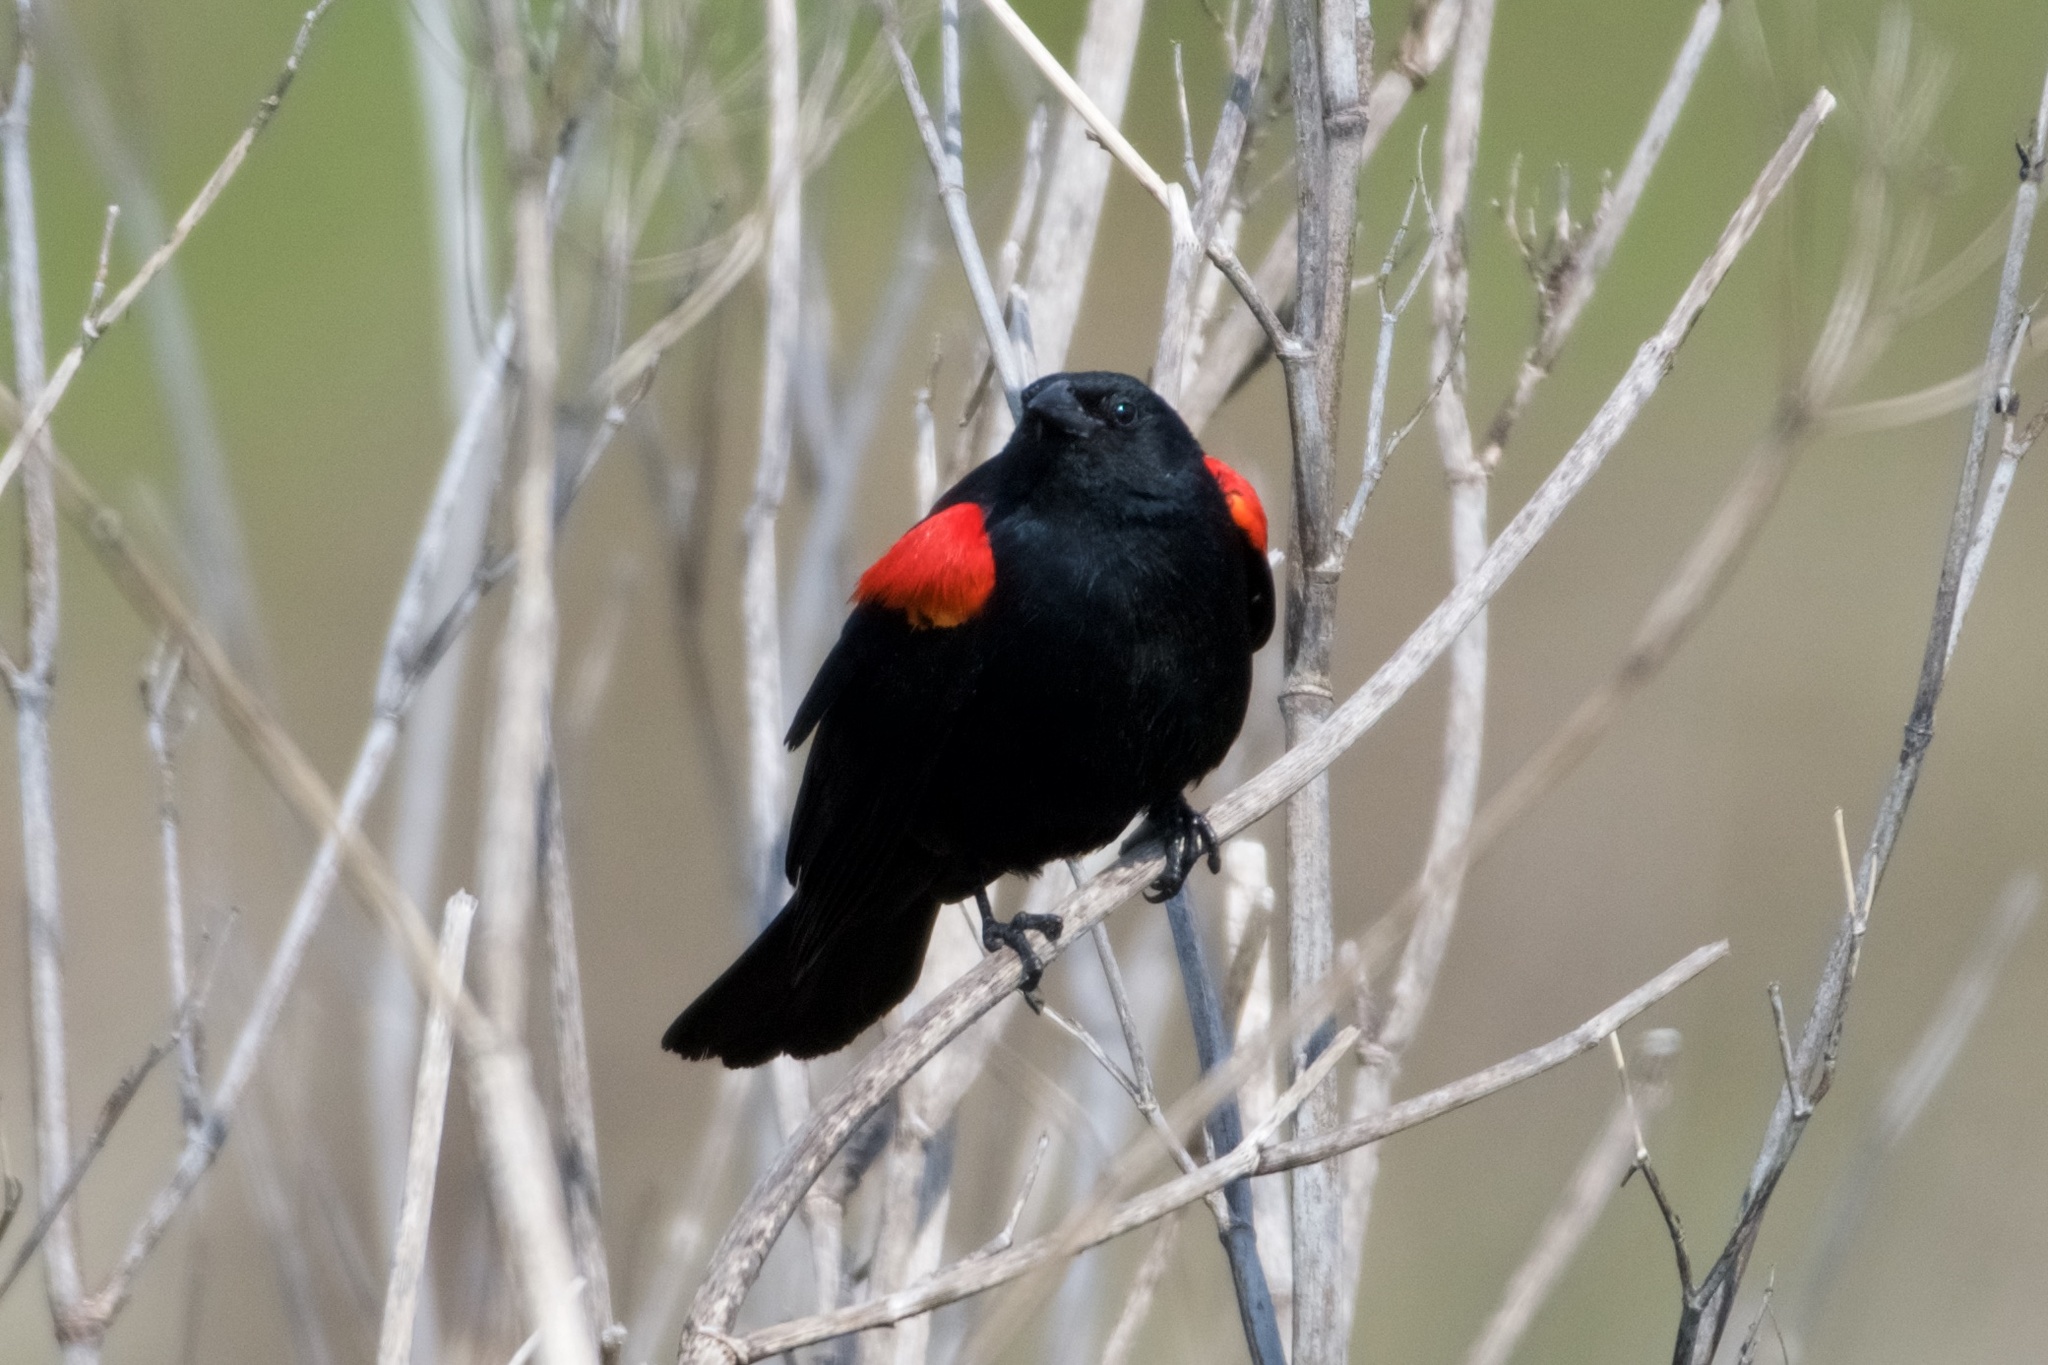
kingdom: Animalia
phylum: Chordata
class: Aves
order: Passeriformes
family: Icteridae
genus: Agelaius
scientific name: Agelaius phoeniceus
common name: Red-winged blackbird
